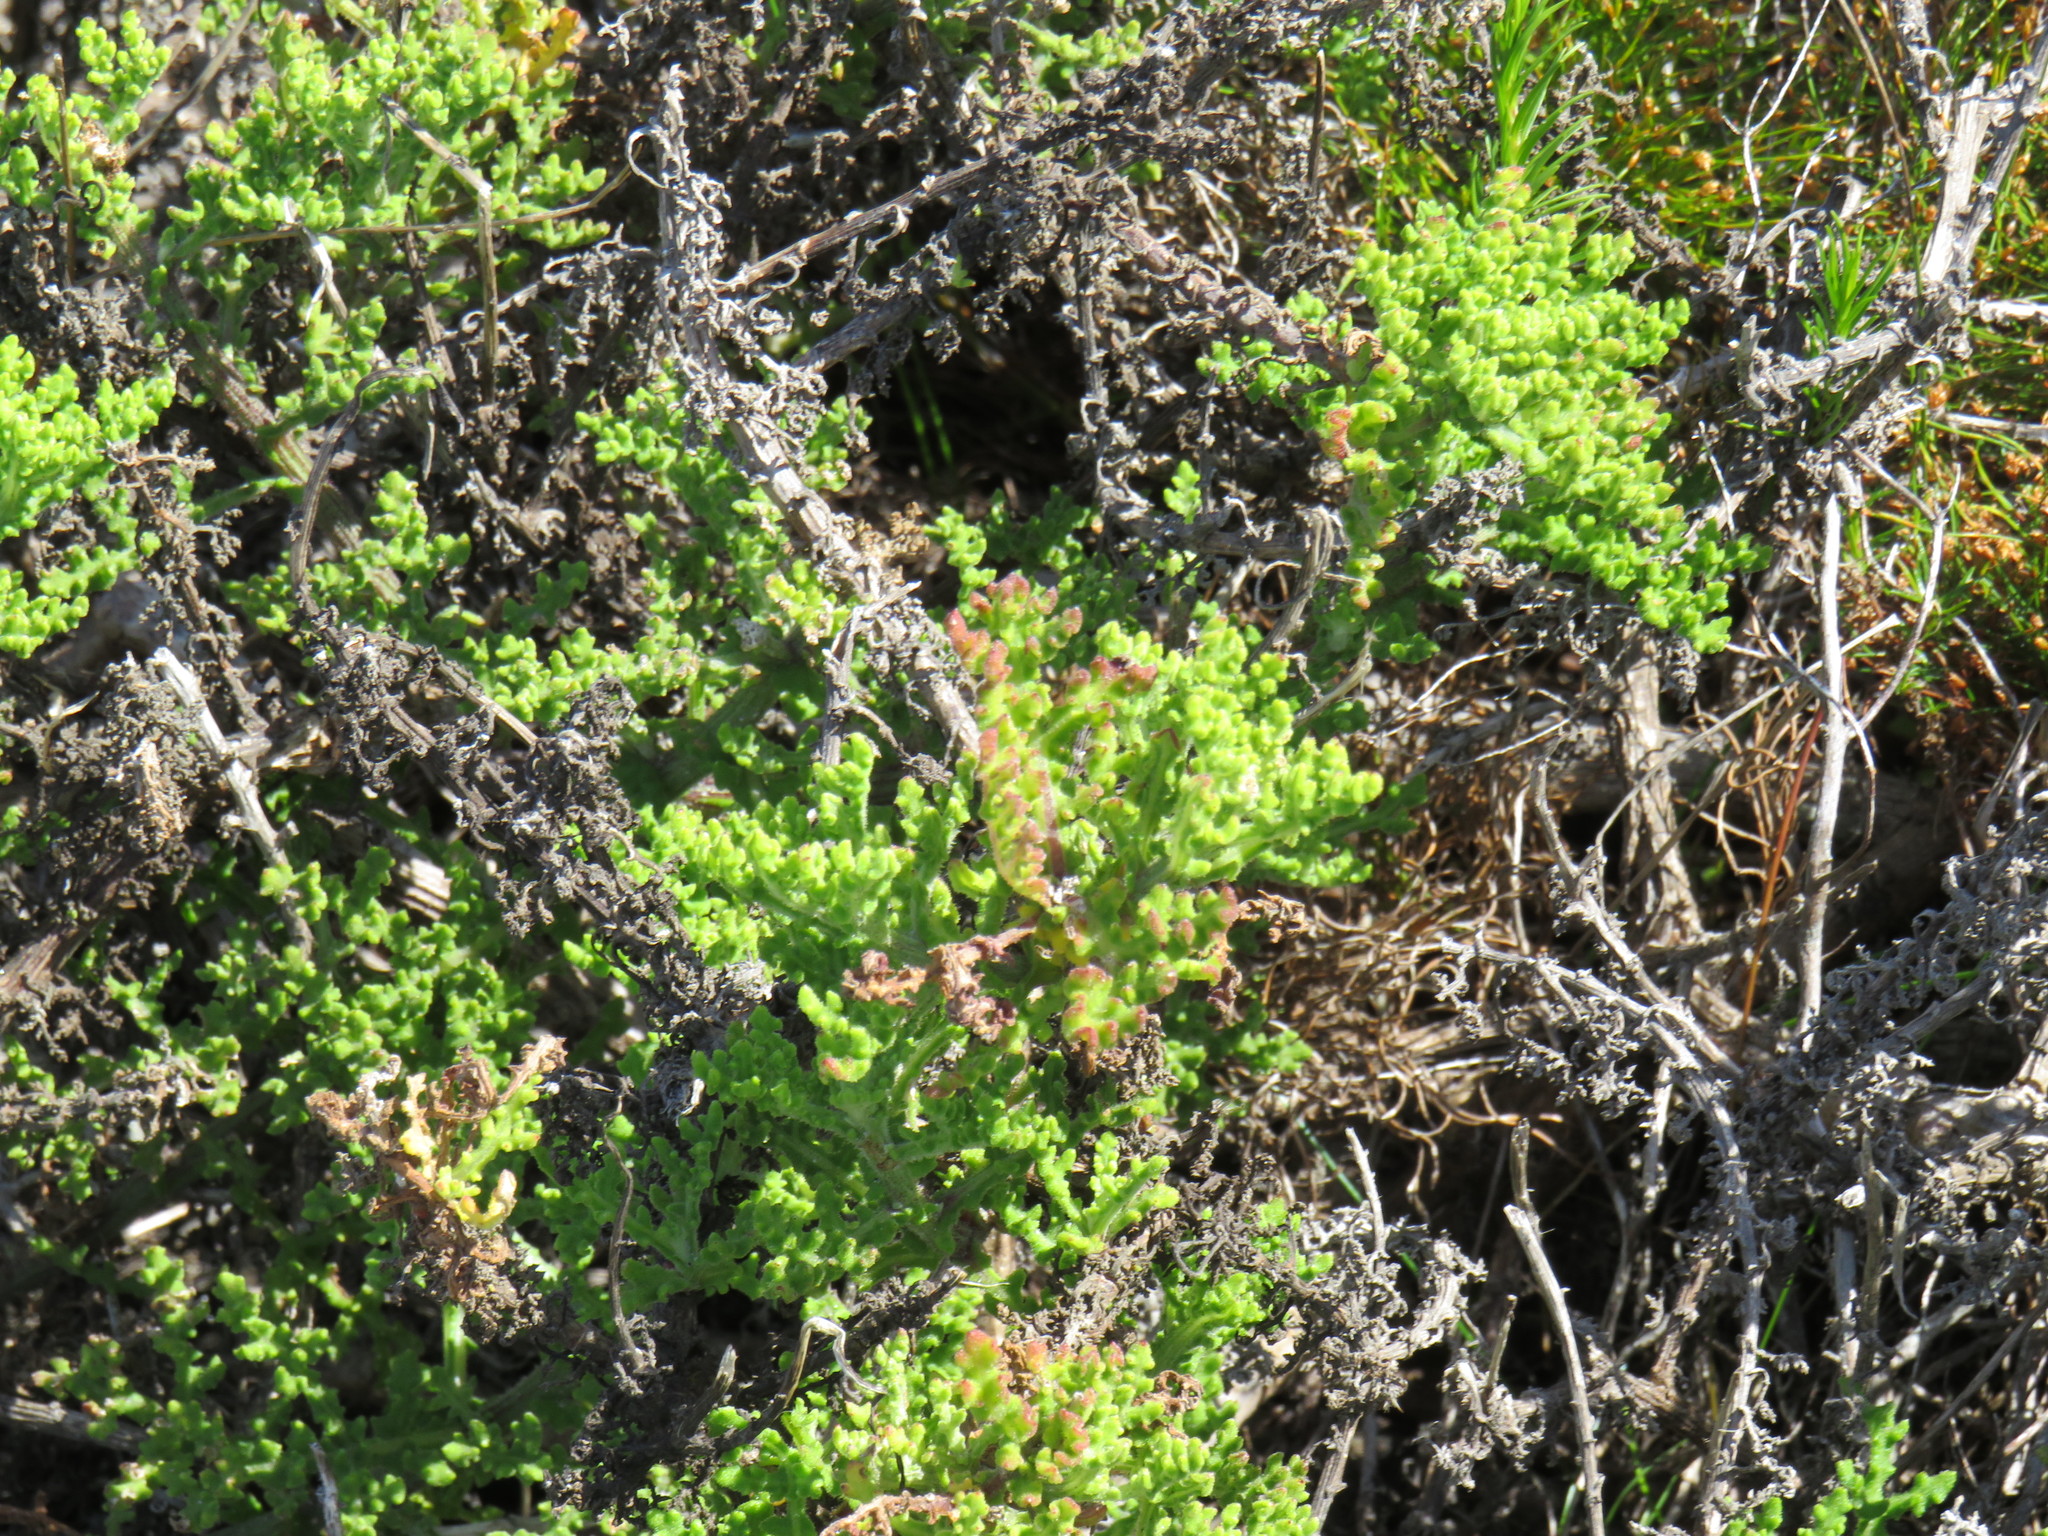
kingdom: Plantae
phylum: Tracheophyta
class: Magnoliopsida
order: Asterales
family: Asteraceae
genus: Arctotis
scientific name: Arctotis aspera
